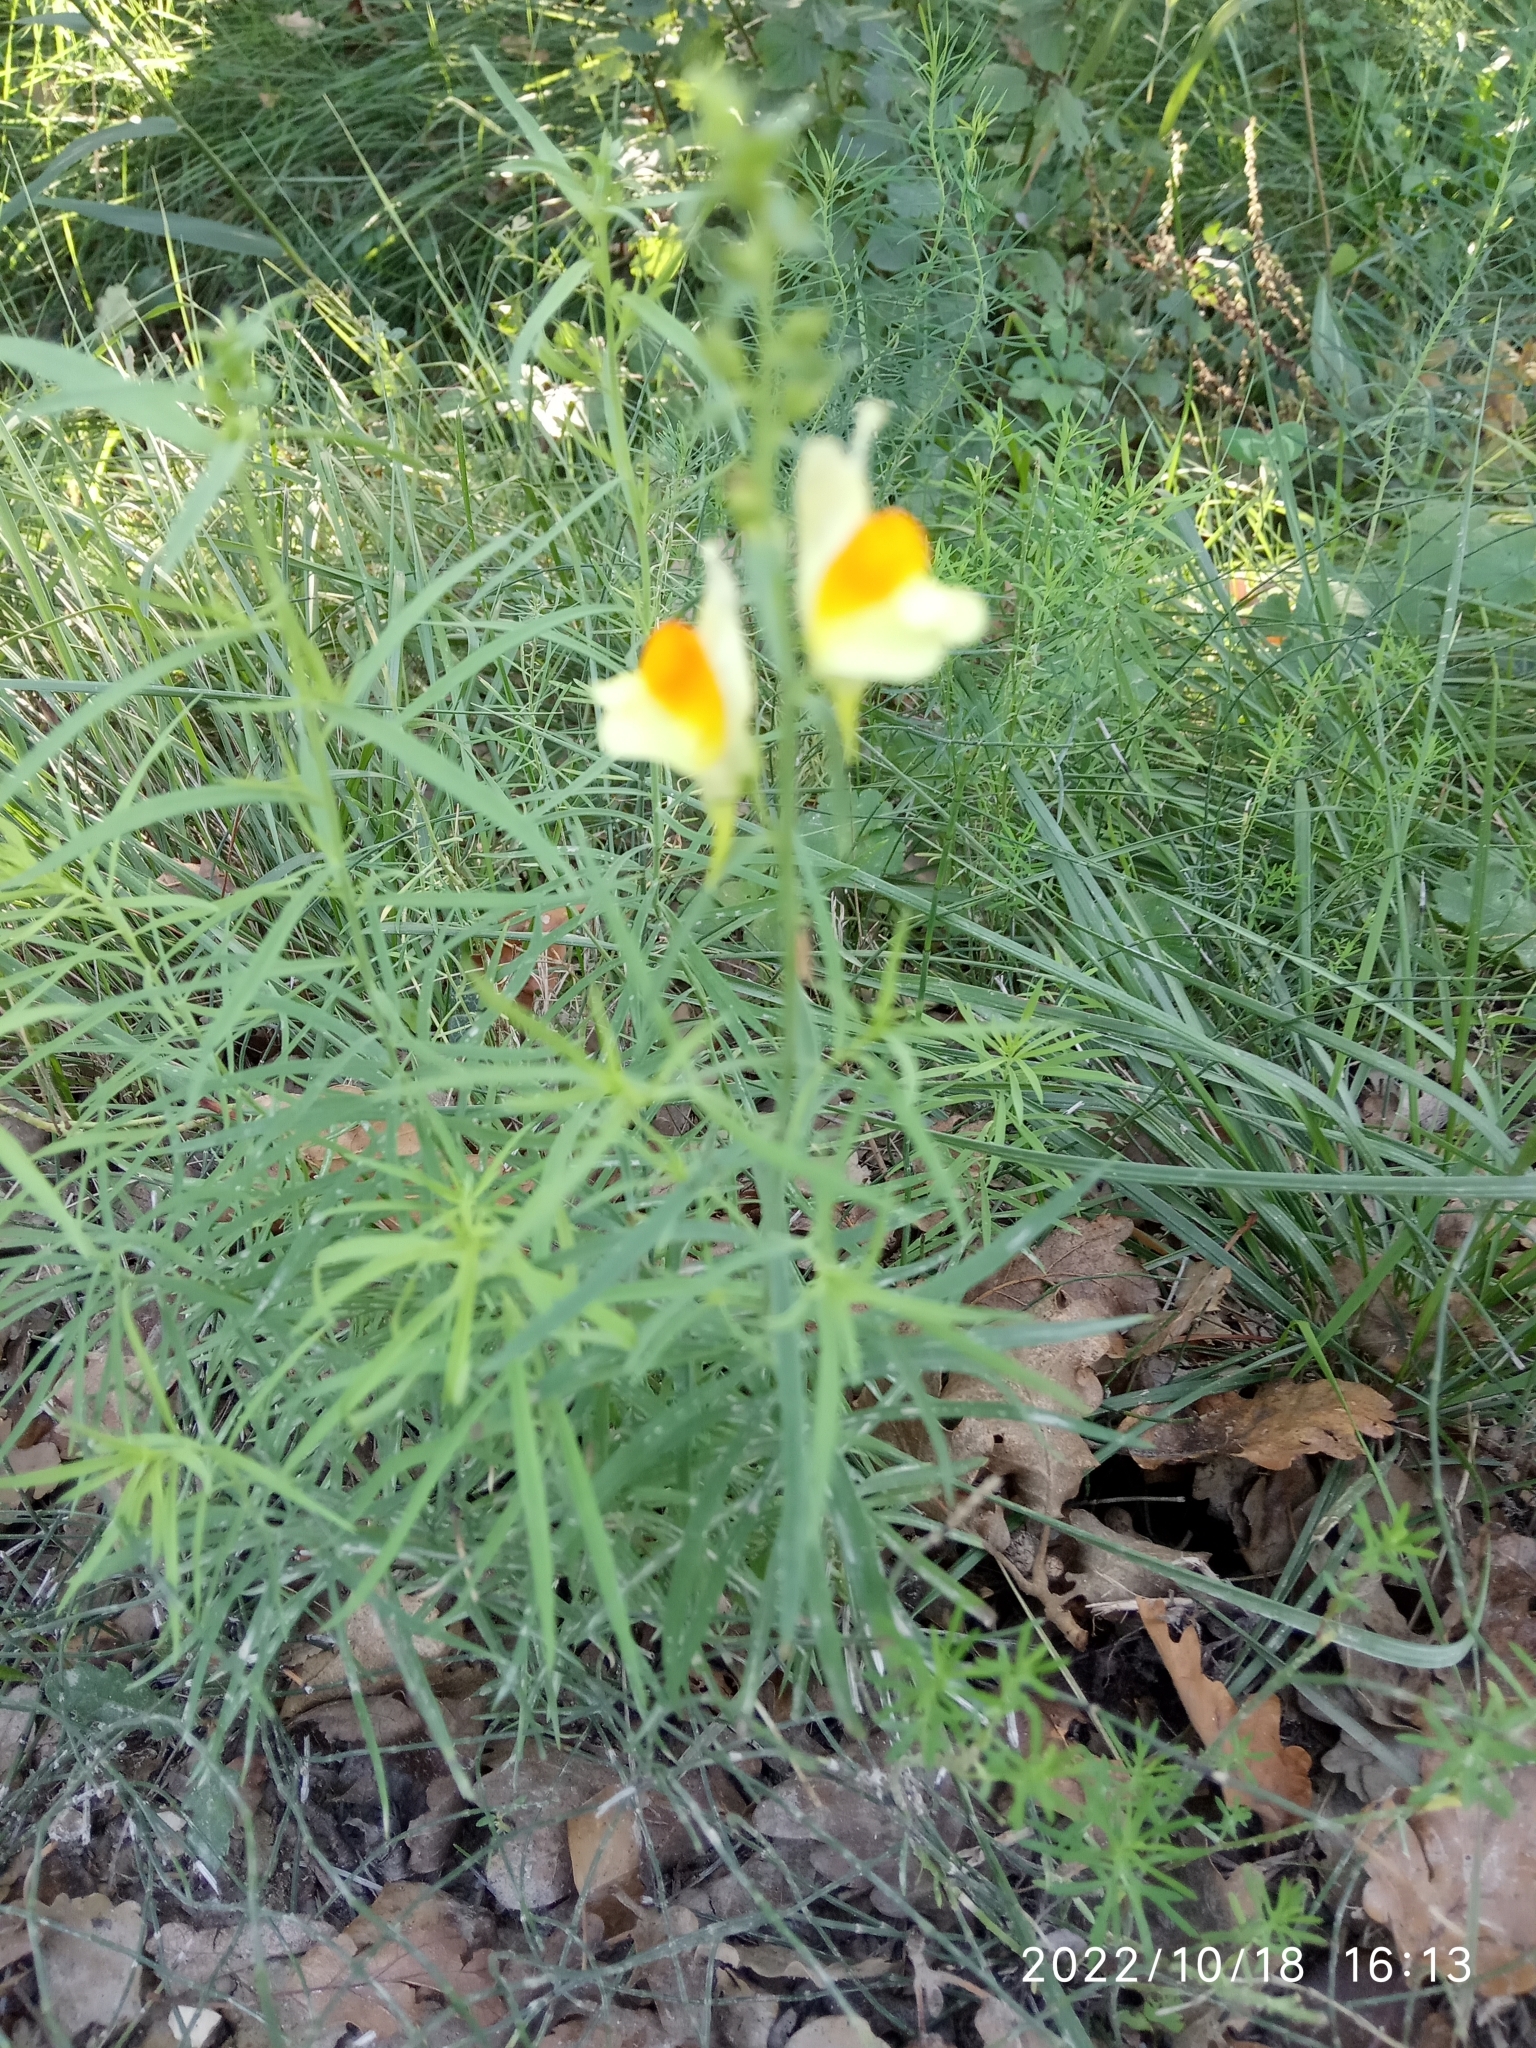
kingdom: Plantae
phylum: Tracheophyta
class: Magnoliopsida
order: Lamiales
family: Plantaginaceae
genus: Linaria
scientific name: Linaria vulgaris
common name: Butter and eggs
